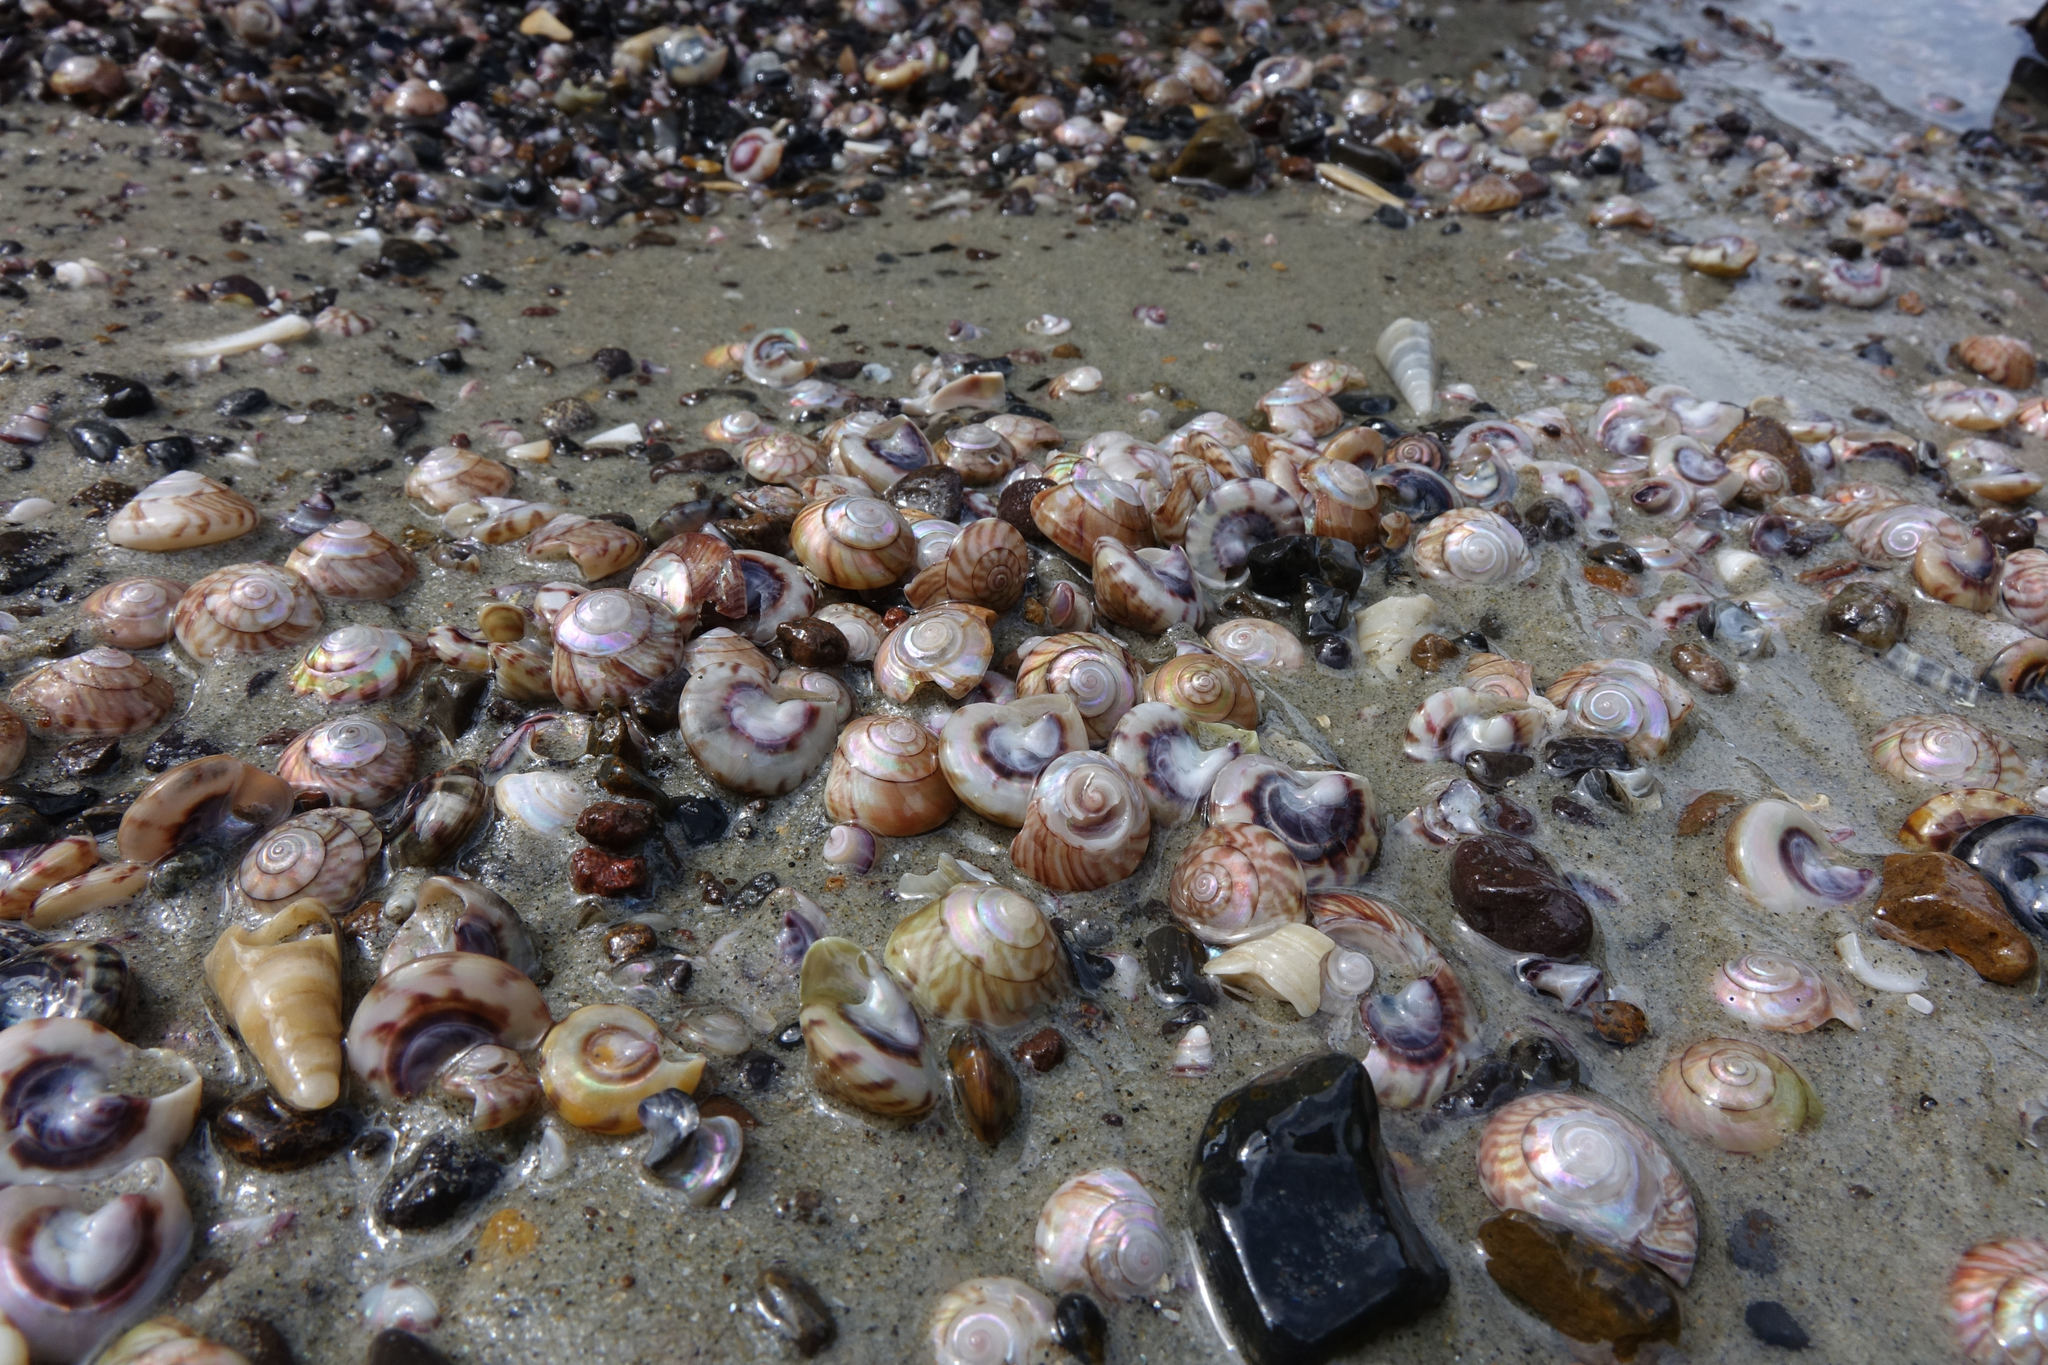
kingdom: Animalia
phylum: Mollusca
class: Gastropoda
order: Trochida
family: Trochidae
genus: Zethalia
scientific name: Zethalia zelandica
